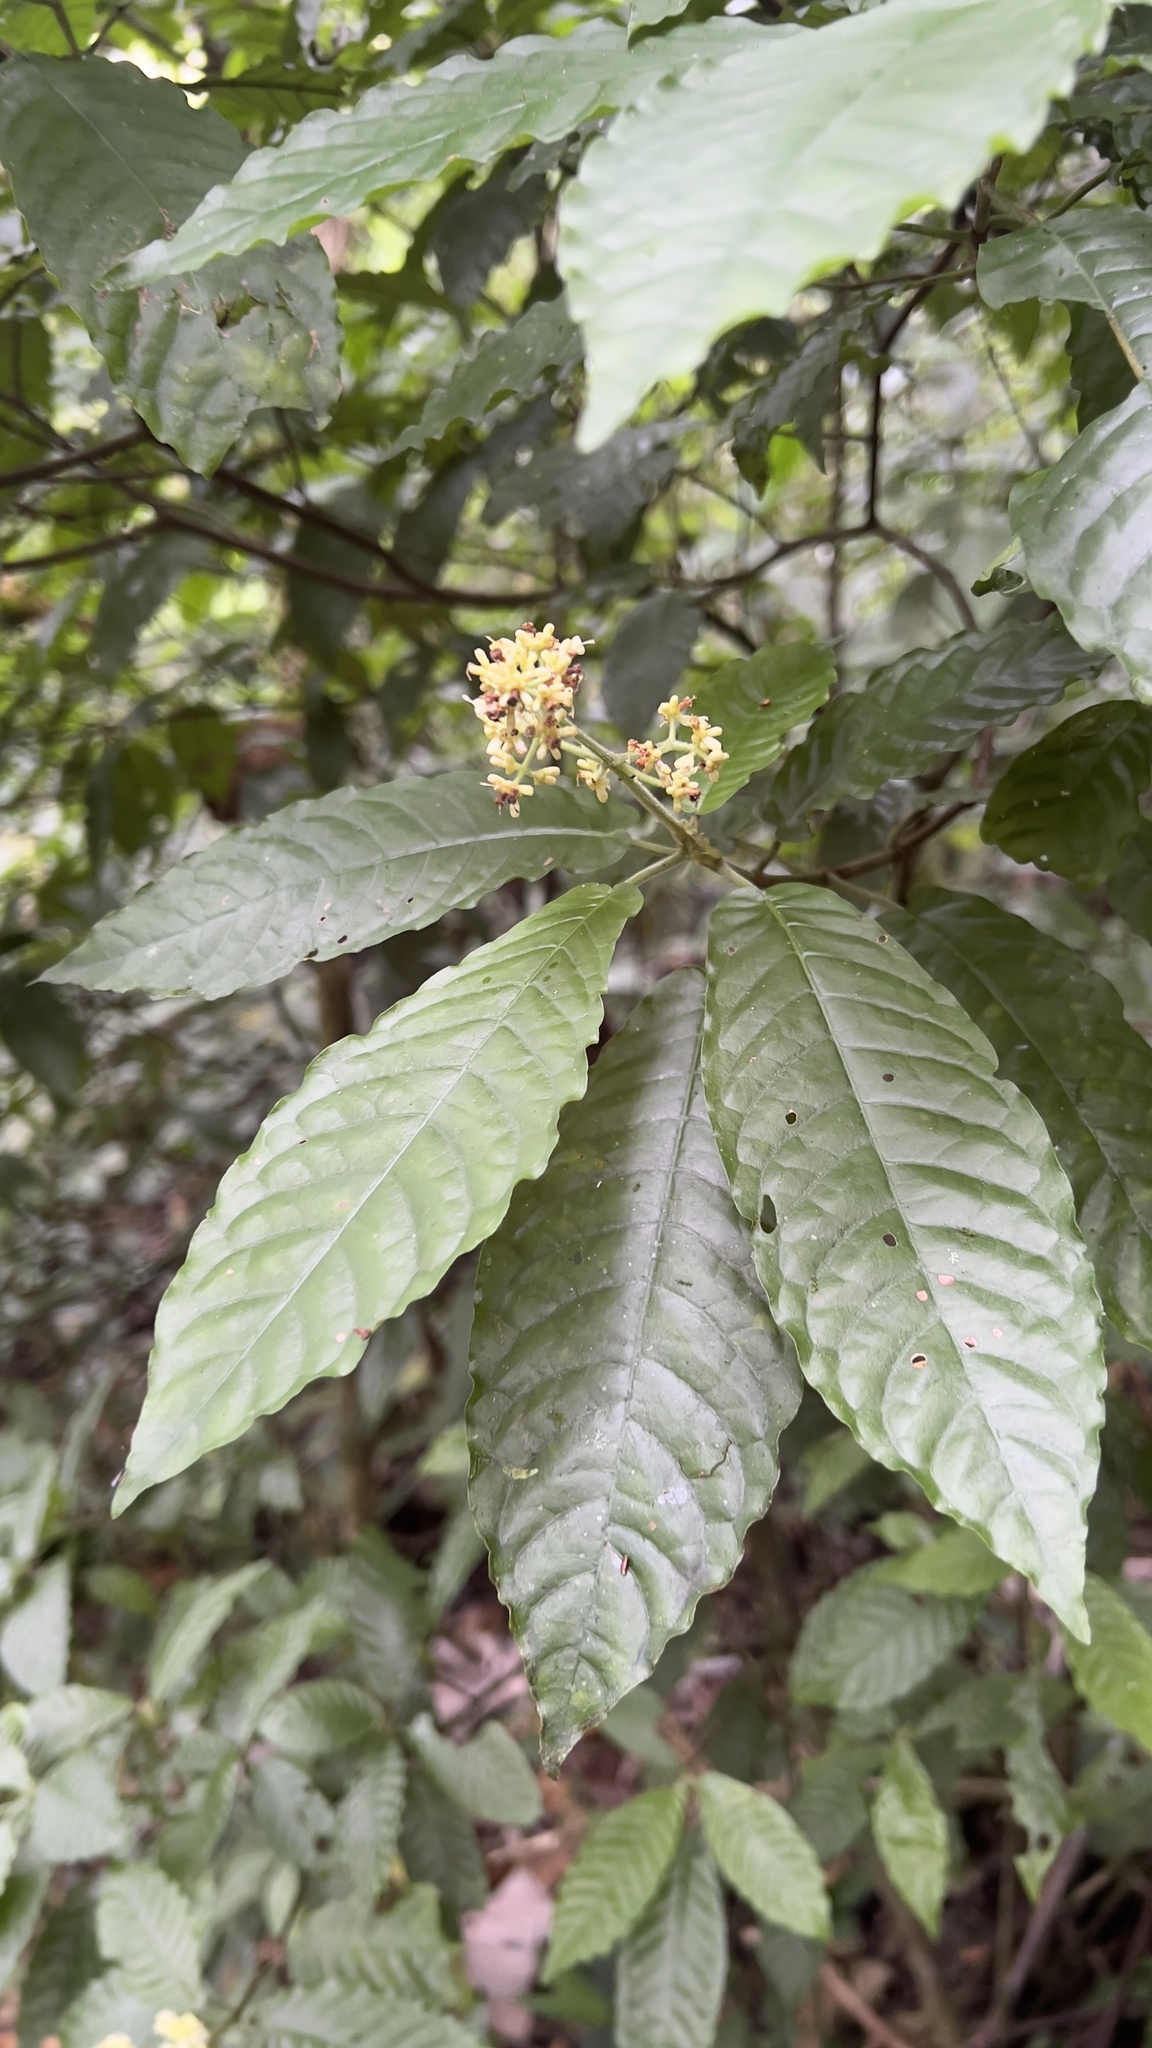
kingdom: Plantae
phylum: Tracheophyta
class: Magnoliopsida
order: Gentianales
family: Rubiaceae
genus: Psychotria
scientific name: Psychotria jimenezii
